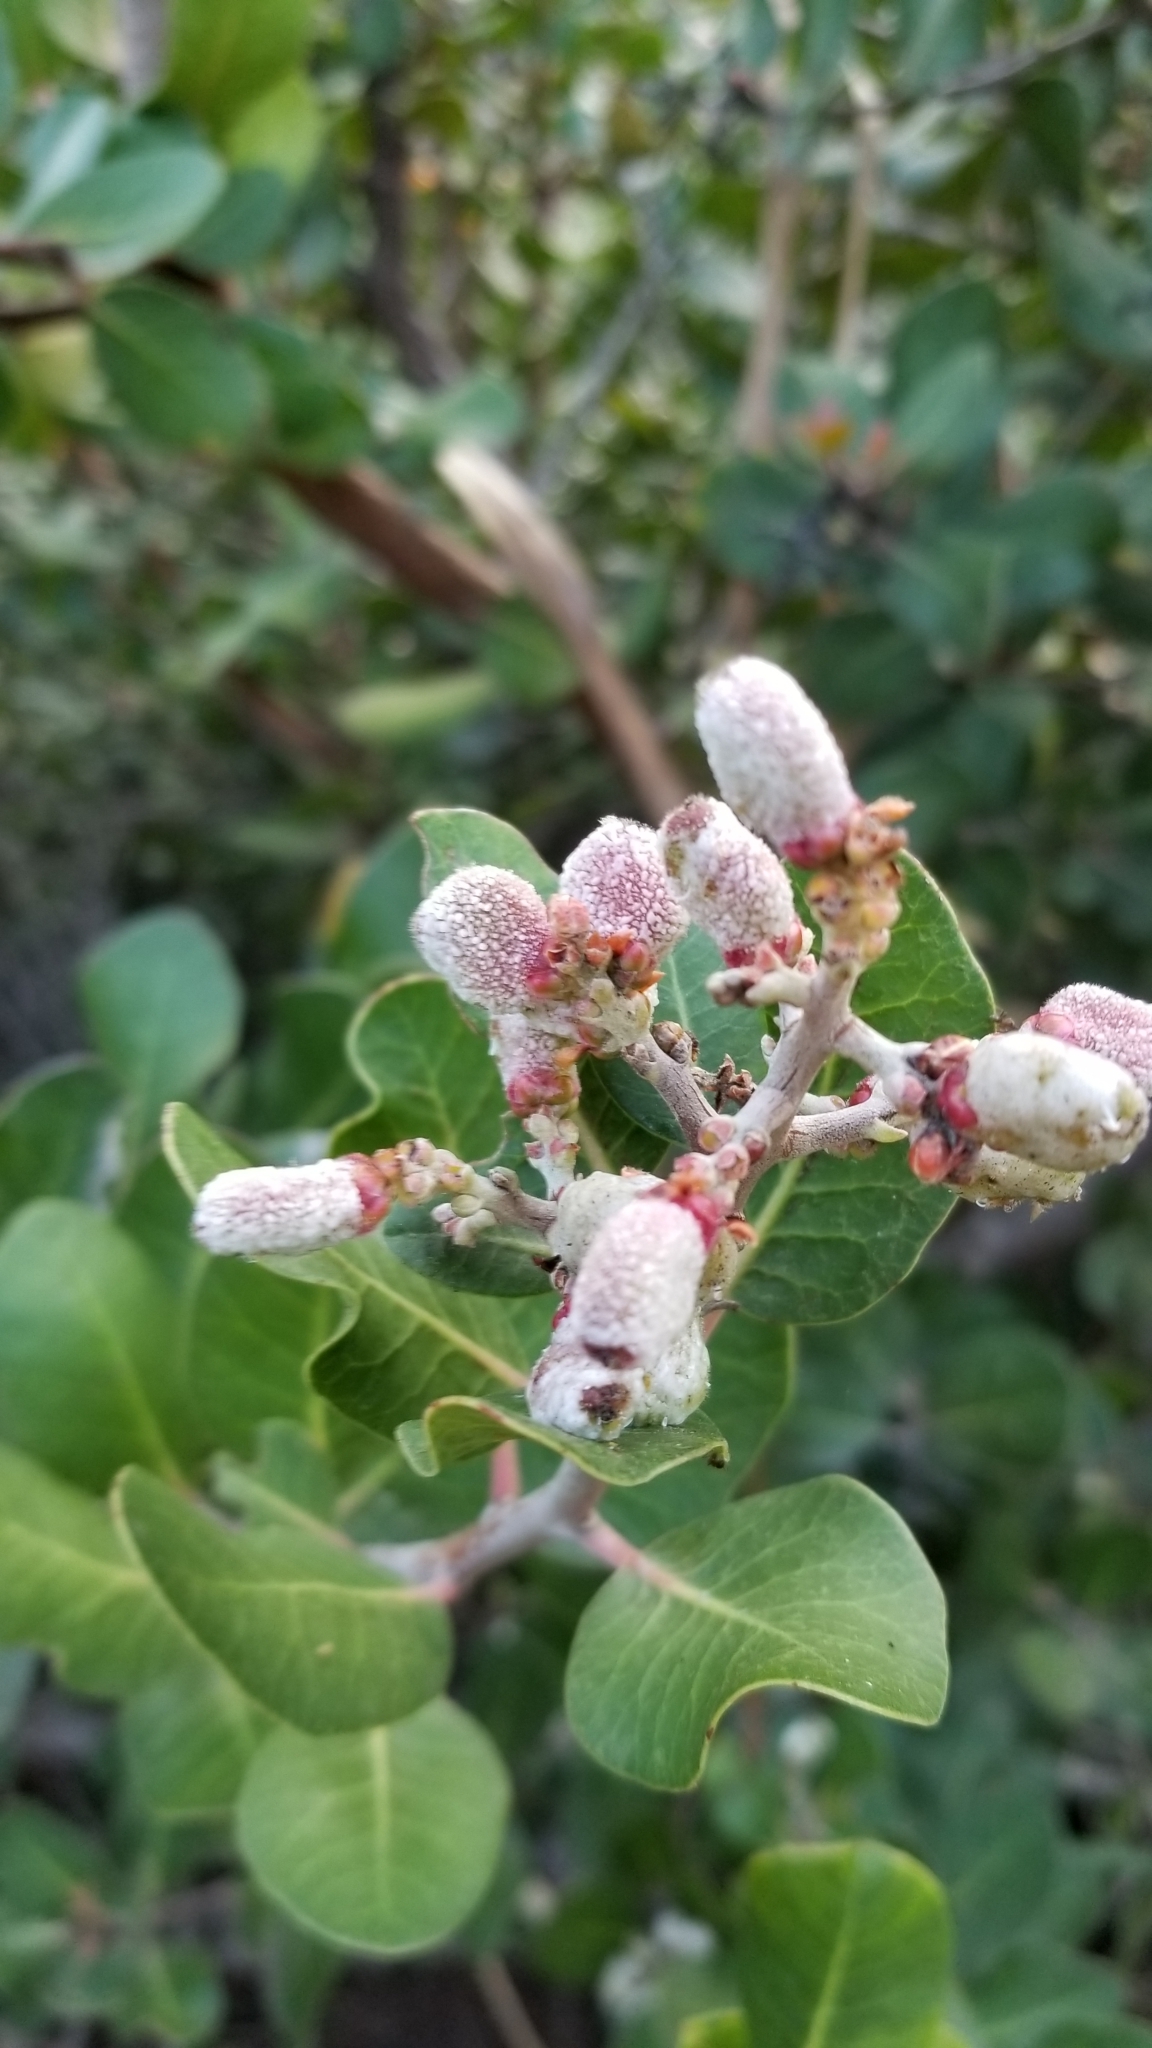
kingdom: Plantae
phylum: Tracheophyta
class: Magnoliopsida
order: Sapindales
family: Anacardiaceae
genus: Rhus
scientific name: Rhus integrifolia
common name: Lemonade sumac
